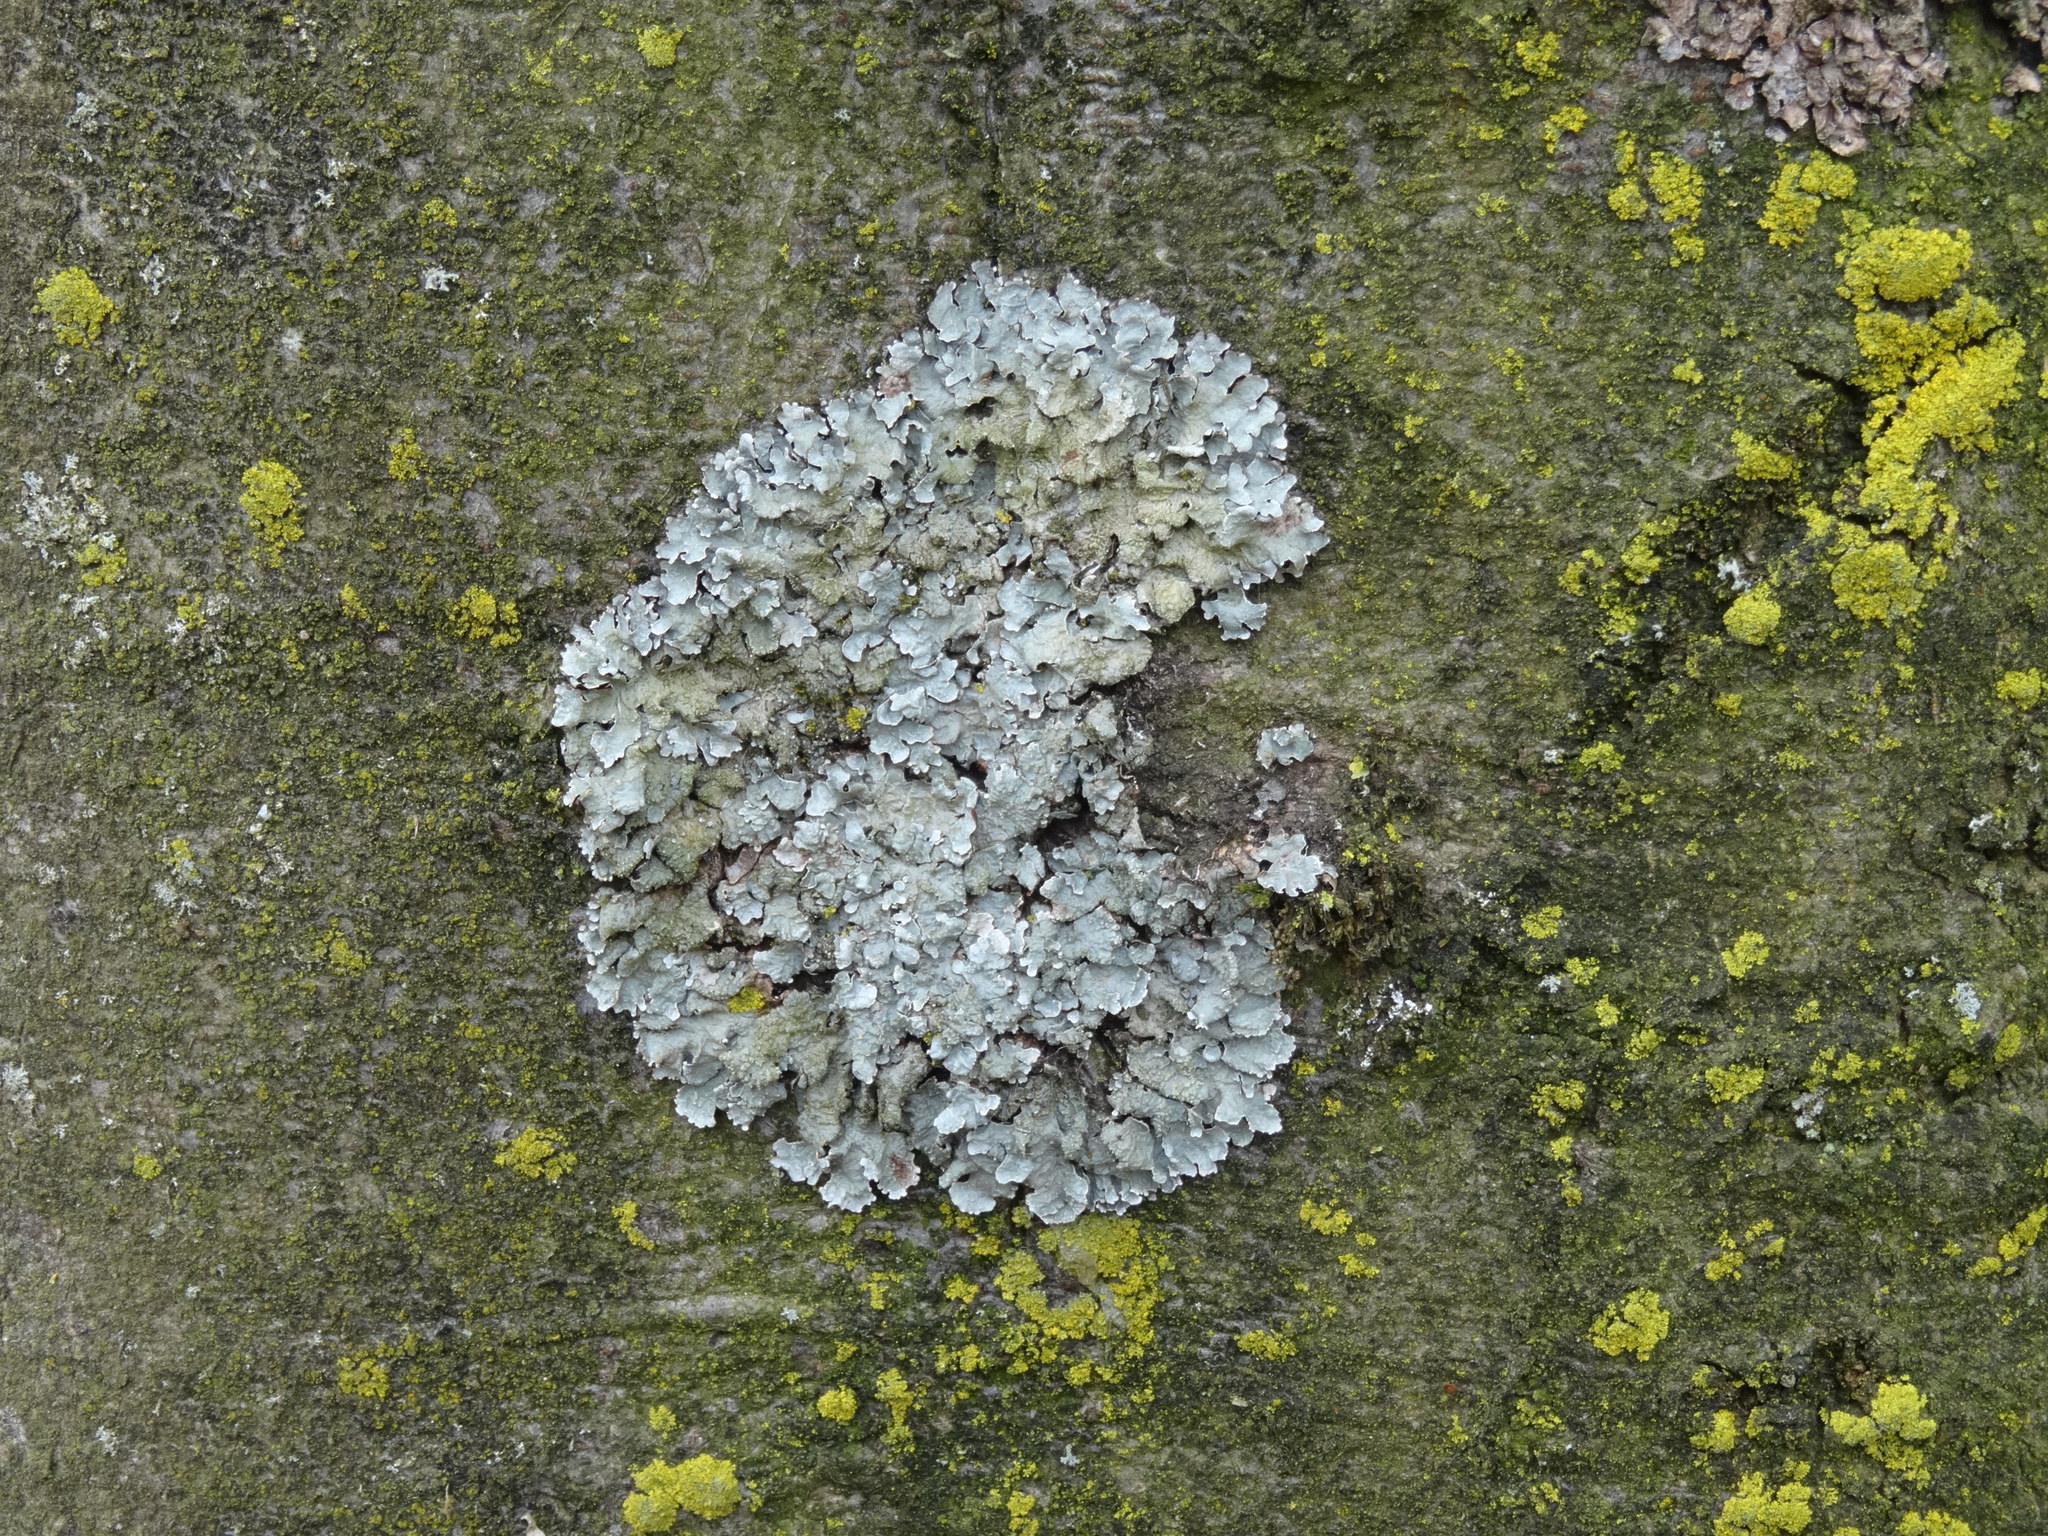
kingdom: Fungi
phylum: Ascomycota
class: Lecanoromycetes
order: Lecanorales
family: Parmeliaceae
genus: Parmelia
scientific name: Parmelia sulcata
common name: Netted shield lichen
